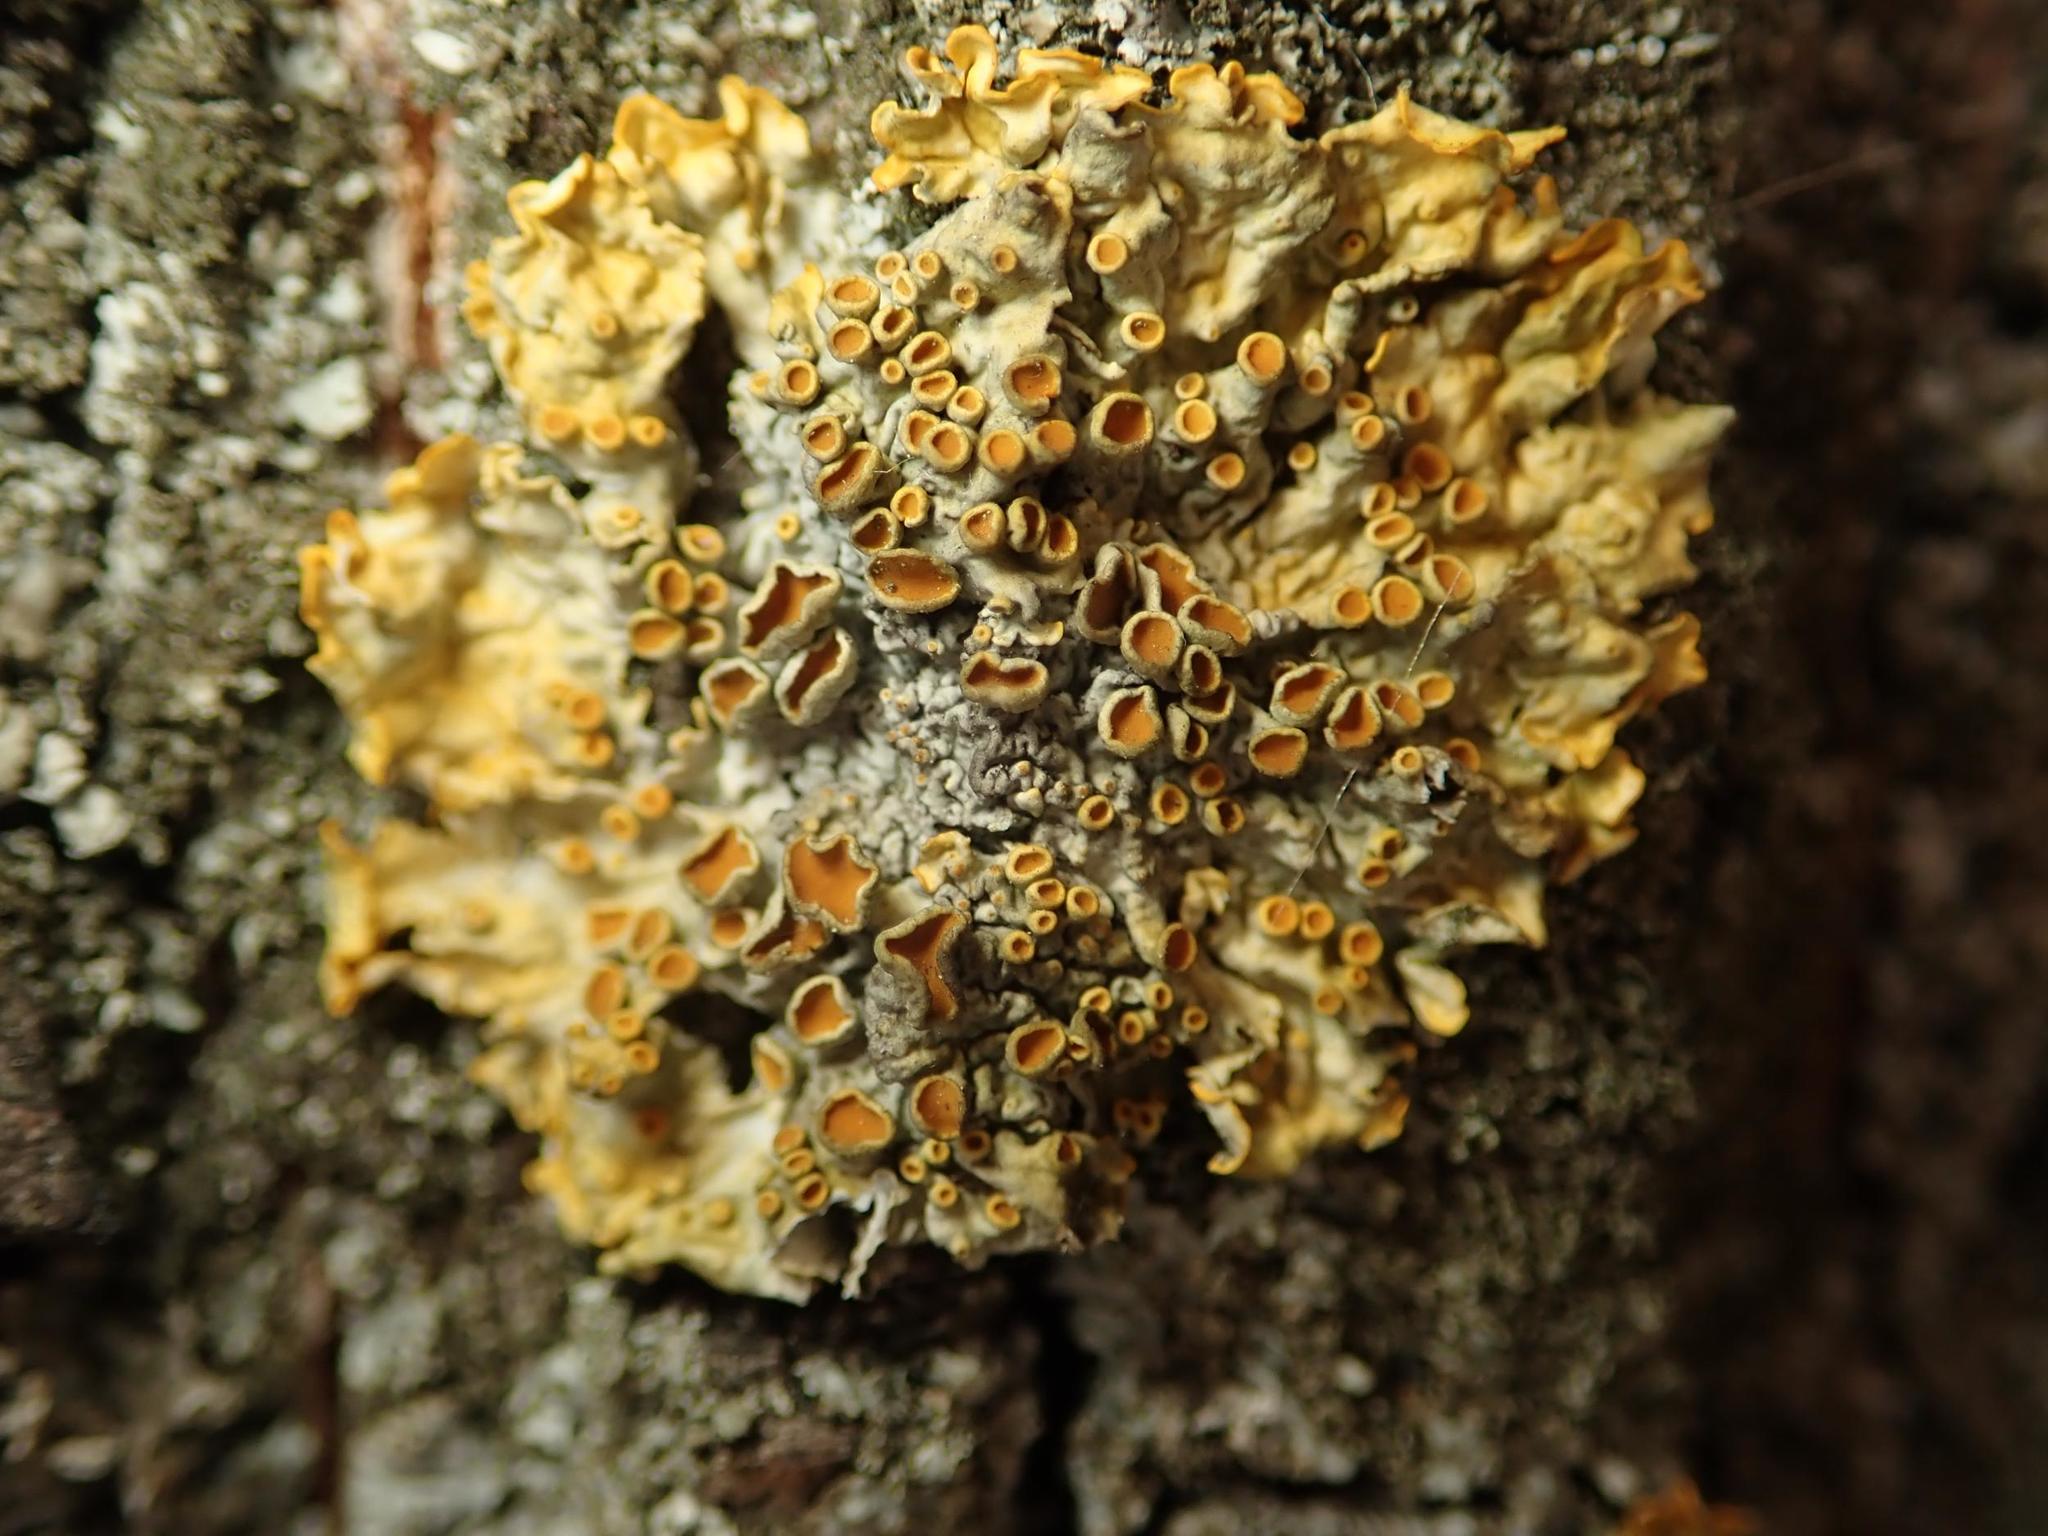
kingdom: Fungi
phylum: Ascomycota
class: Lecanoromycetes
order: Teloschistales
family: Teloschistaceae
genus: Xanthoria
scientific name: Xanthoria parietina
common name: Common orange lichen
